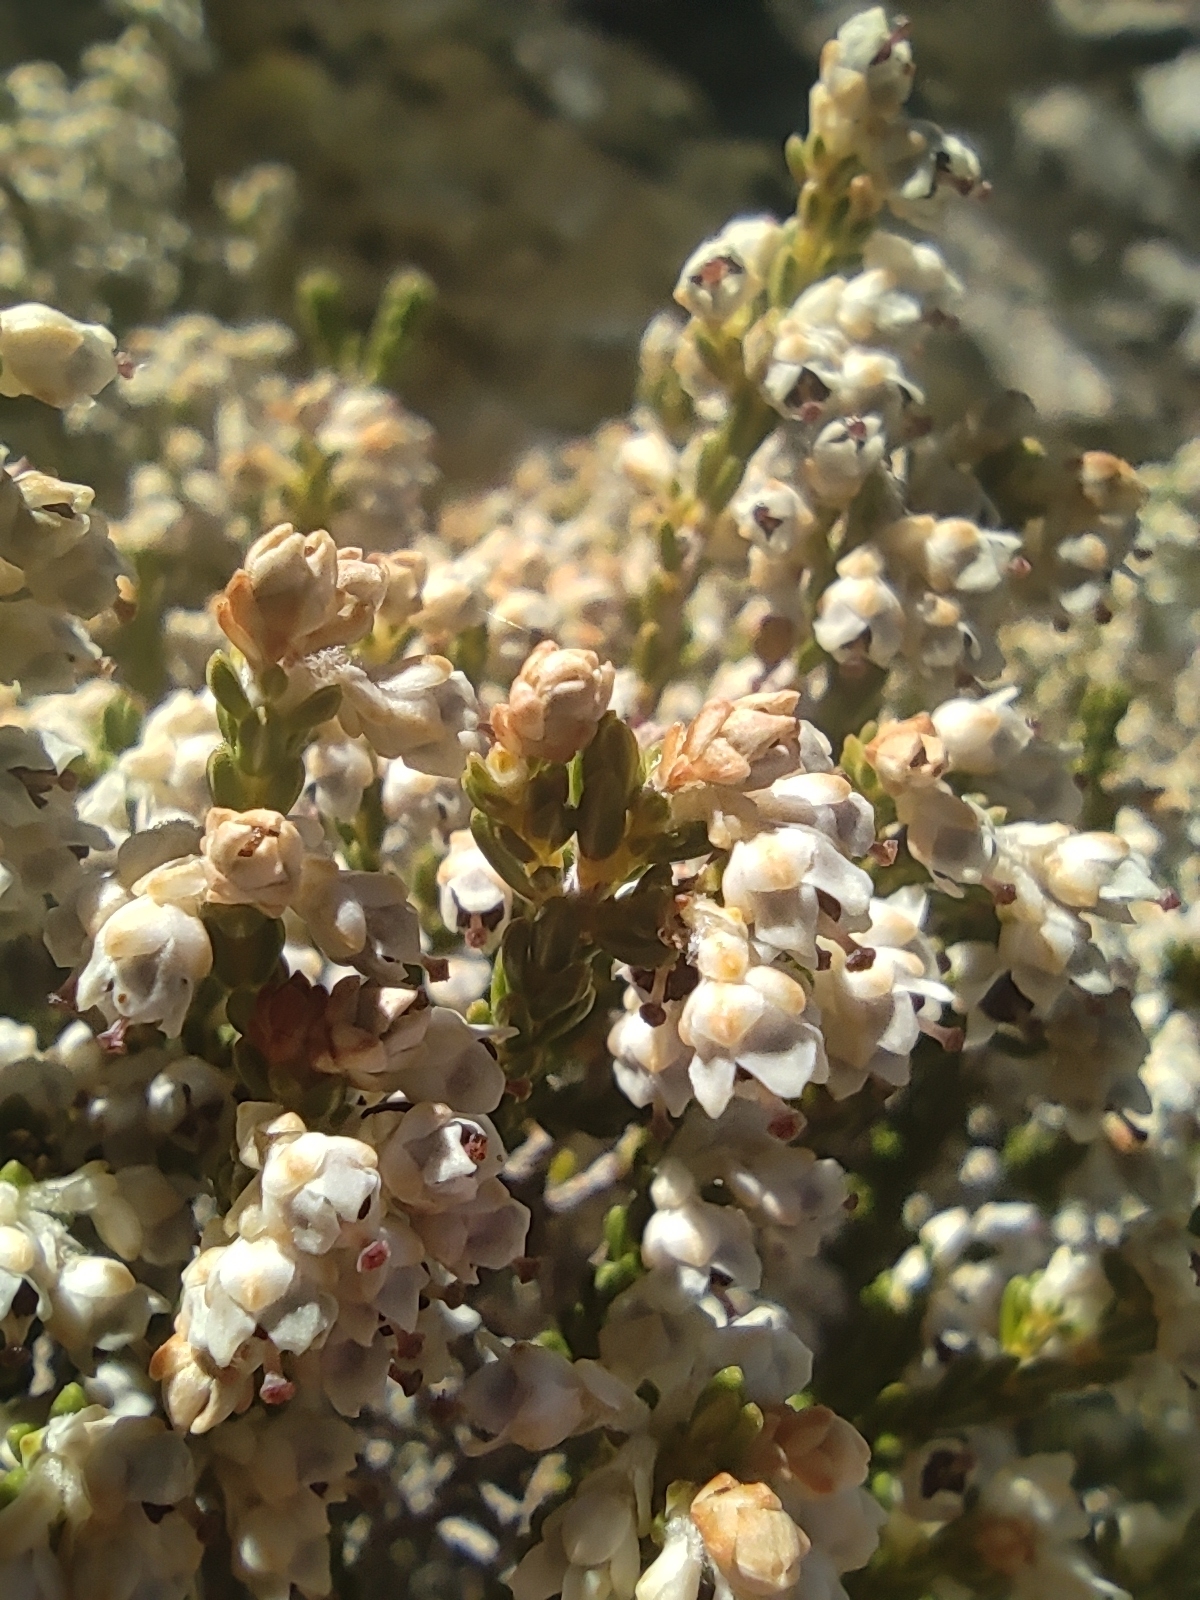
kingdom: Plantae
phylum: Tracheophyta
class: Magnoliopsida
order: Ericales
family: Ericaceae
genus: Erica
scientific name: Erica pseudocalycina
